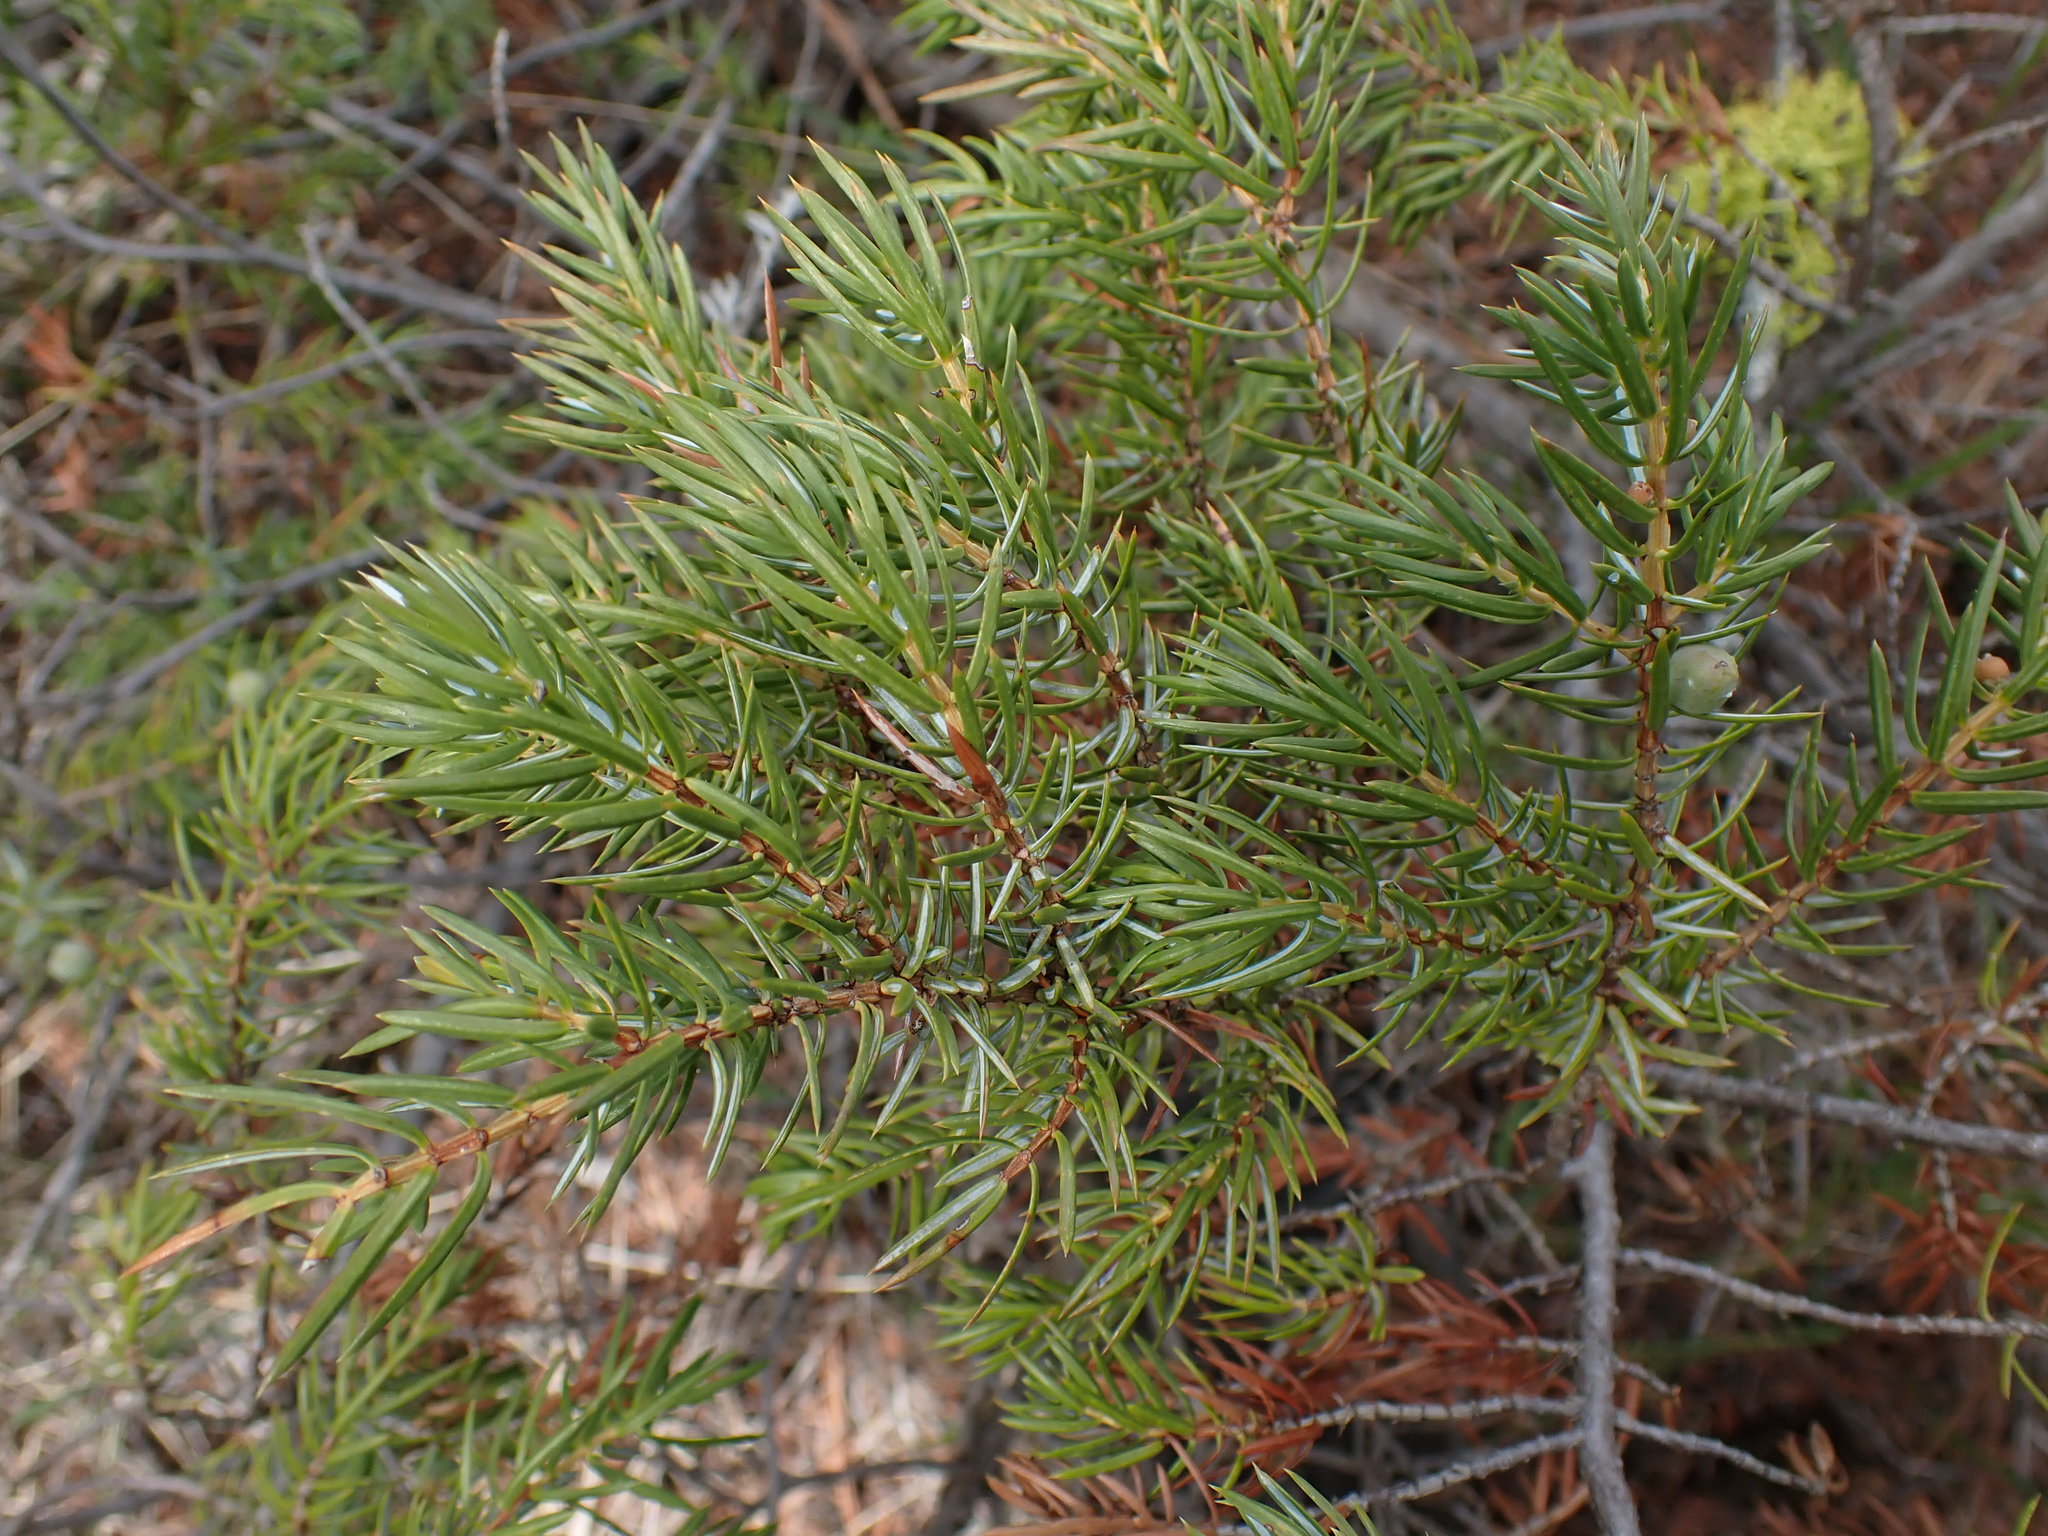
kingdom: Plantae
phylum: Tracheophyta
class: Pinopsida
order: Pinales
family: Cupressaceae
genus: Juniperus
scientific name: Juniperus communis
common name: Common juniper
